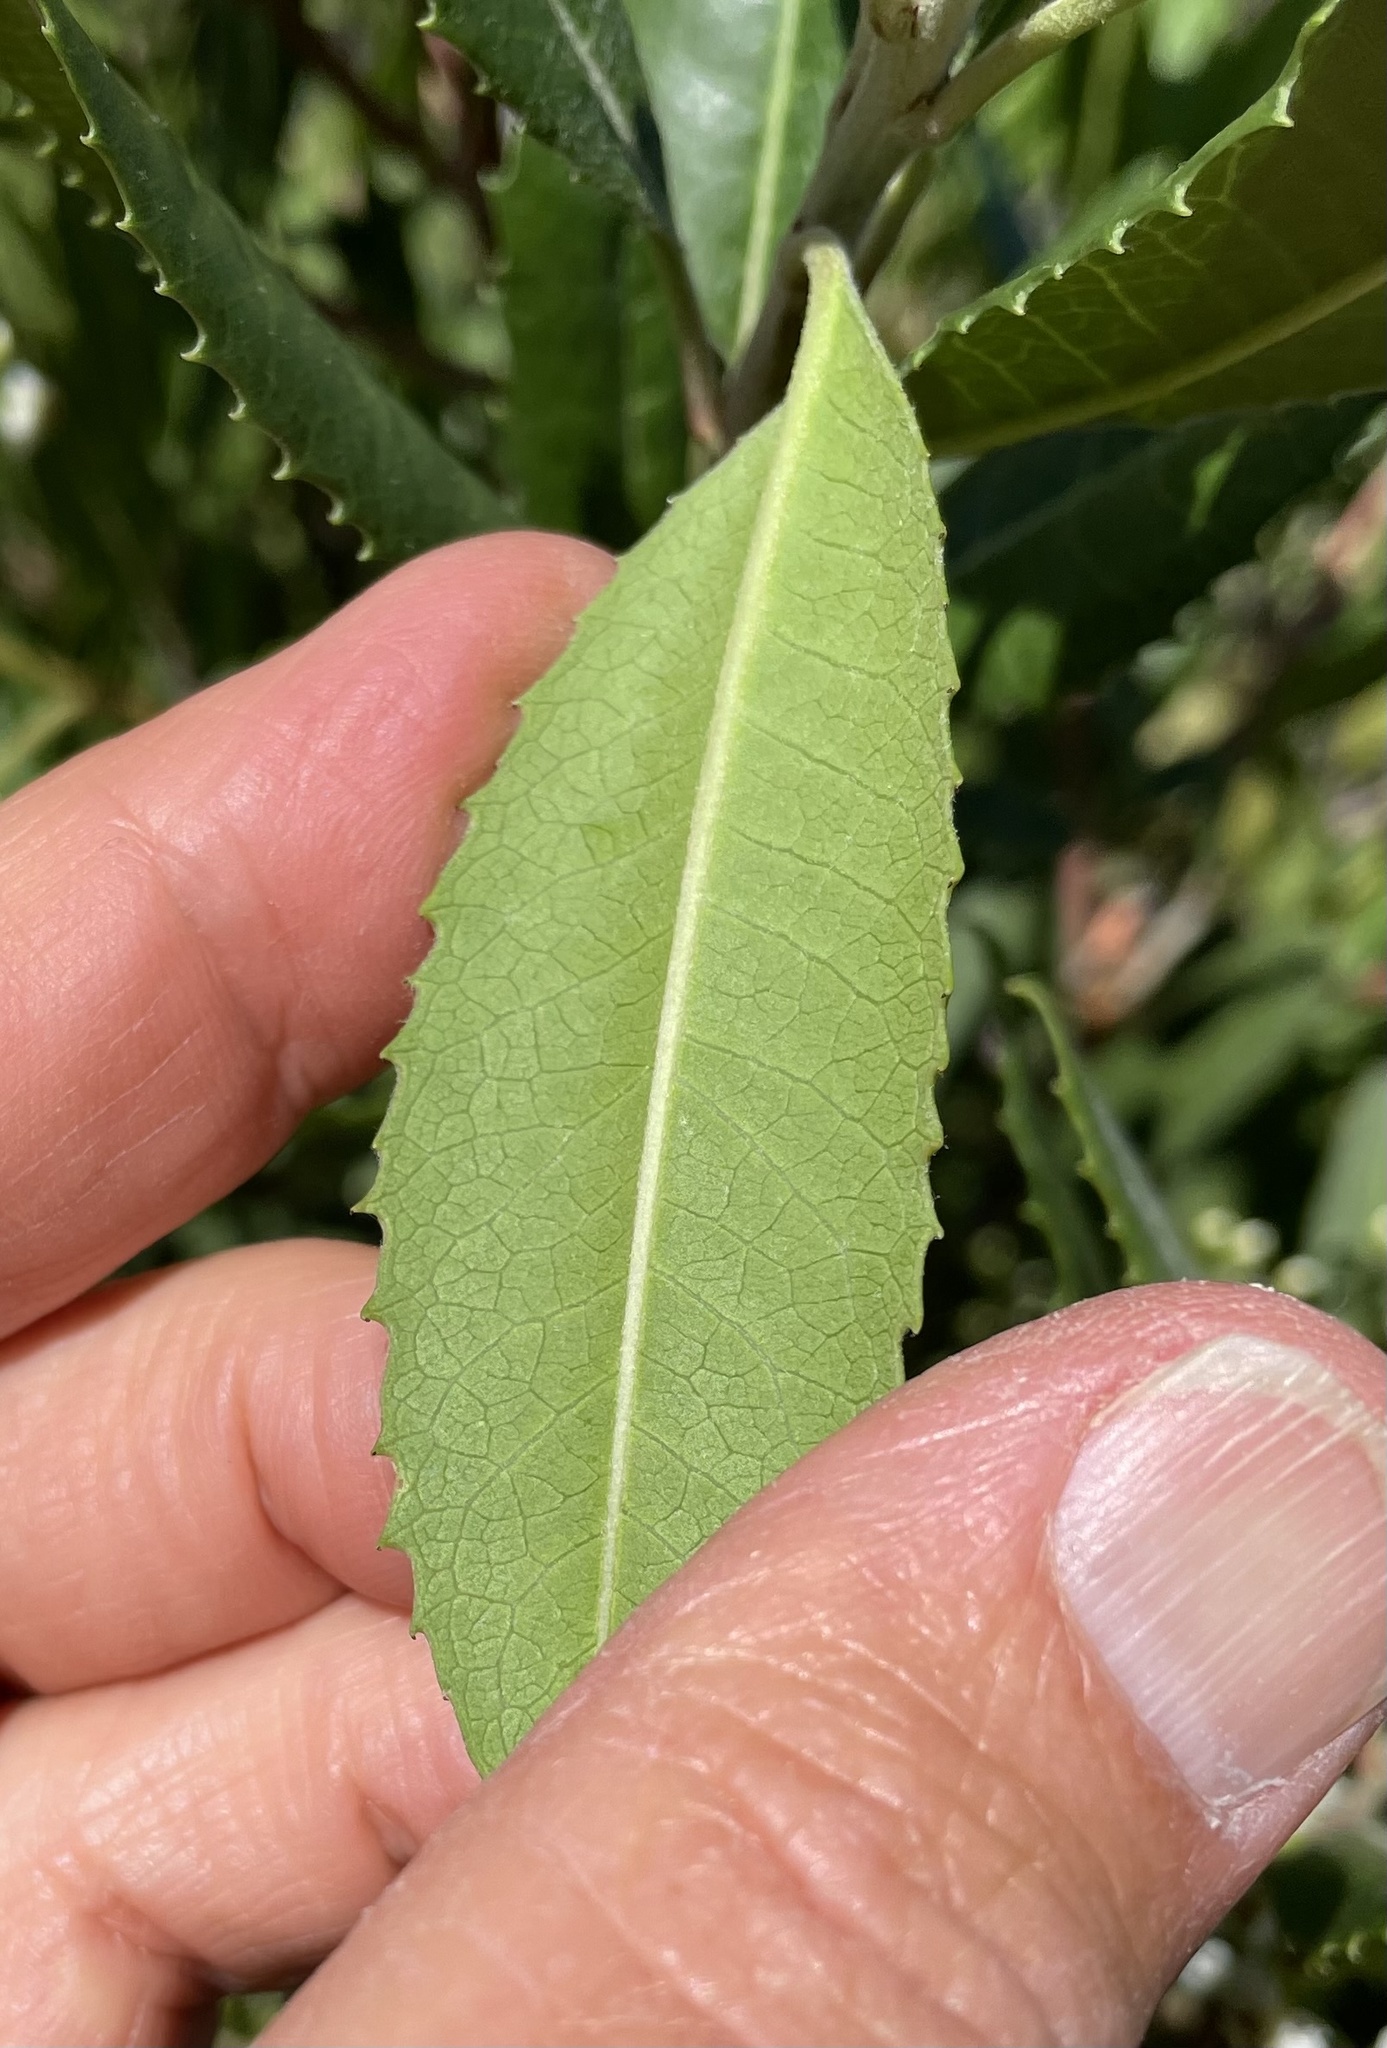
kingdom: Plantae
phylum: Tracheophyta
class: Magnoliopsida
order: Rosales
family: Rosaceae
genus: Heteromeles
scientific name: Heteromeles arbutifolia
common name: California-holly
